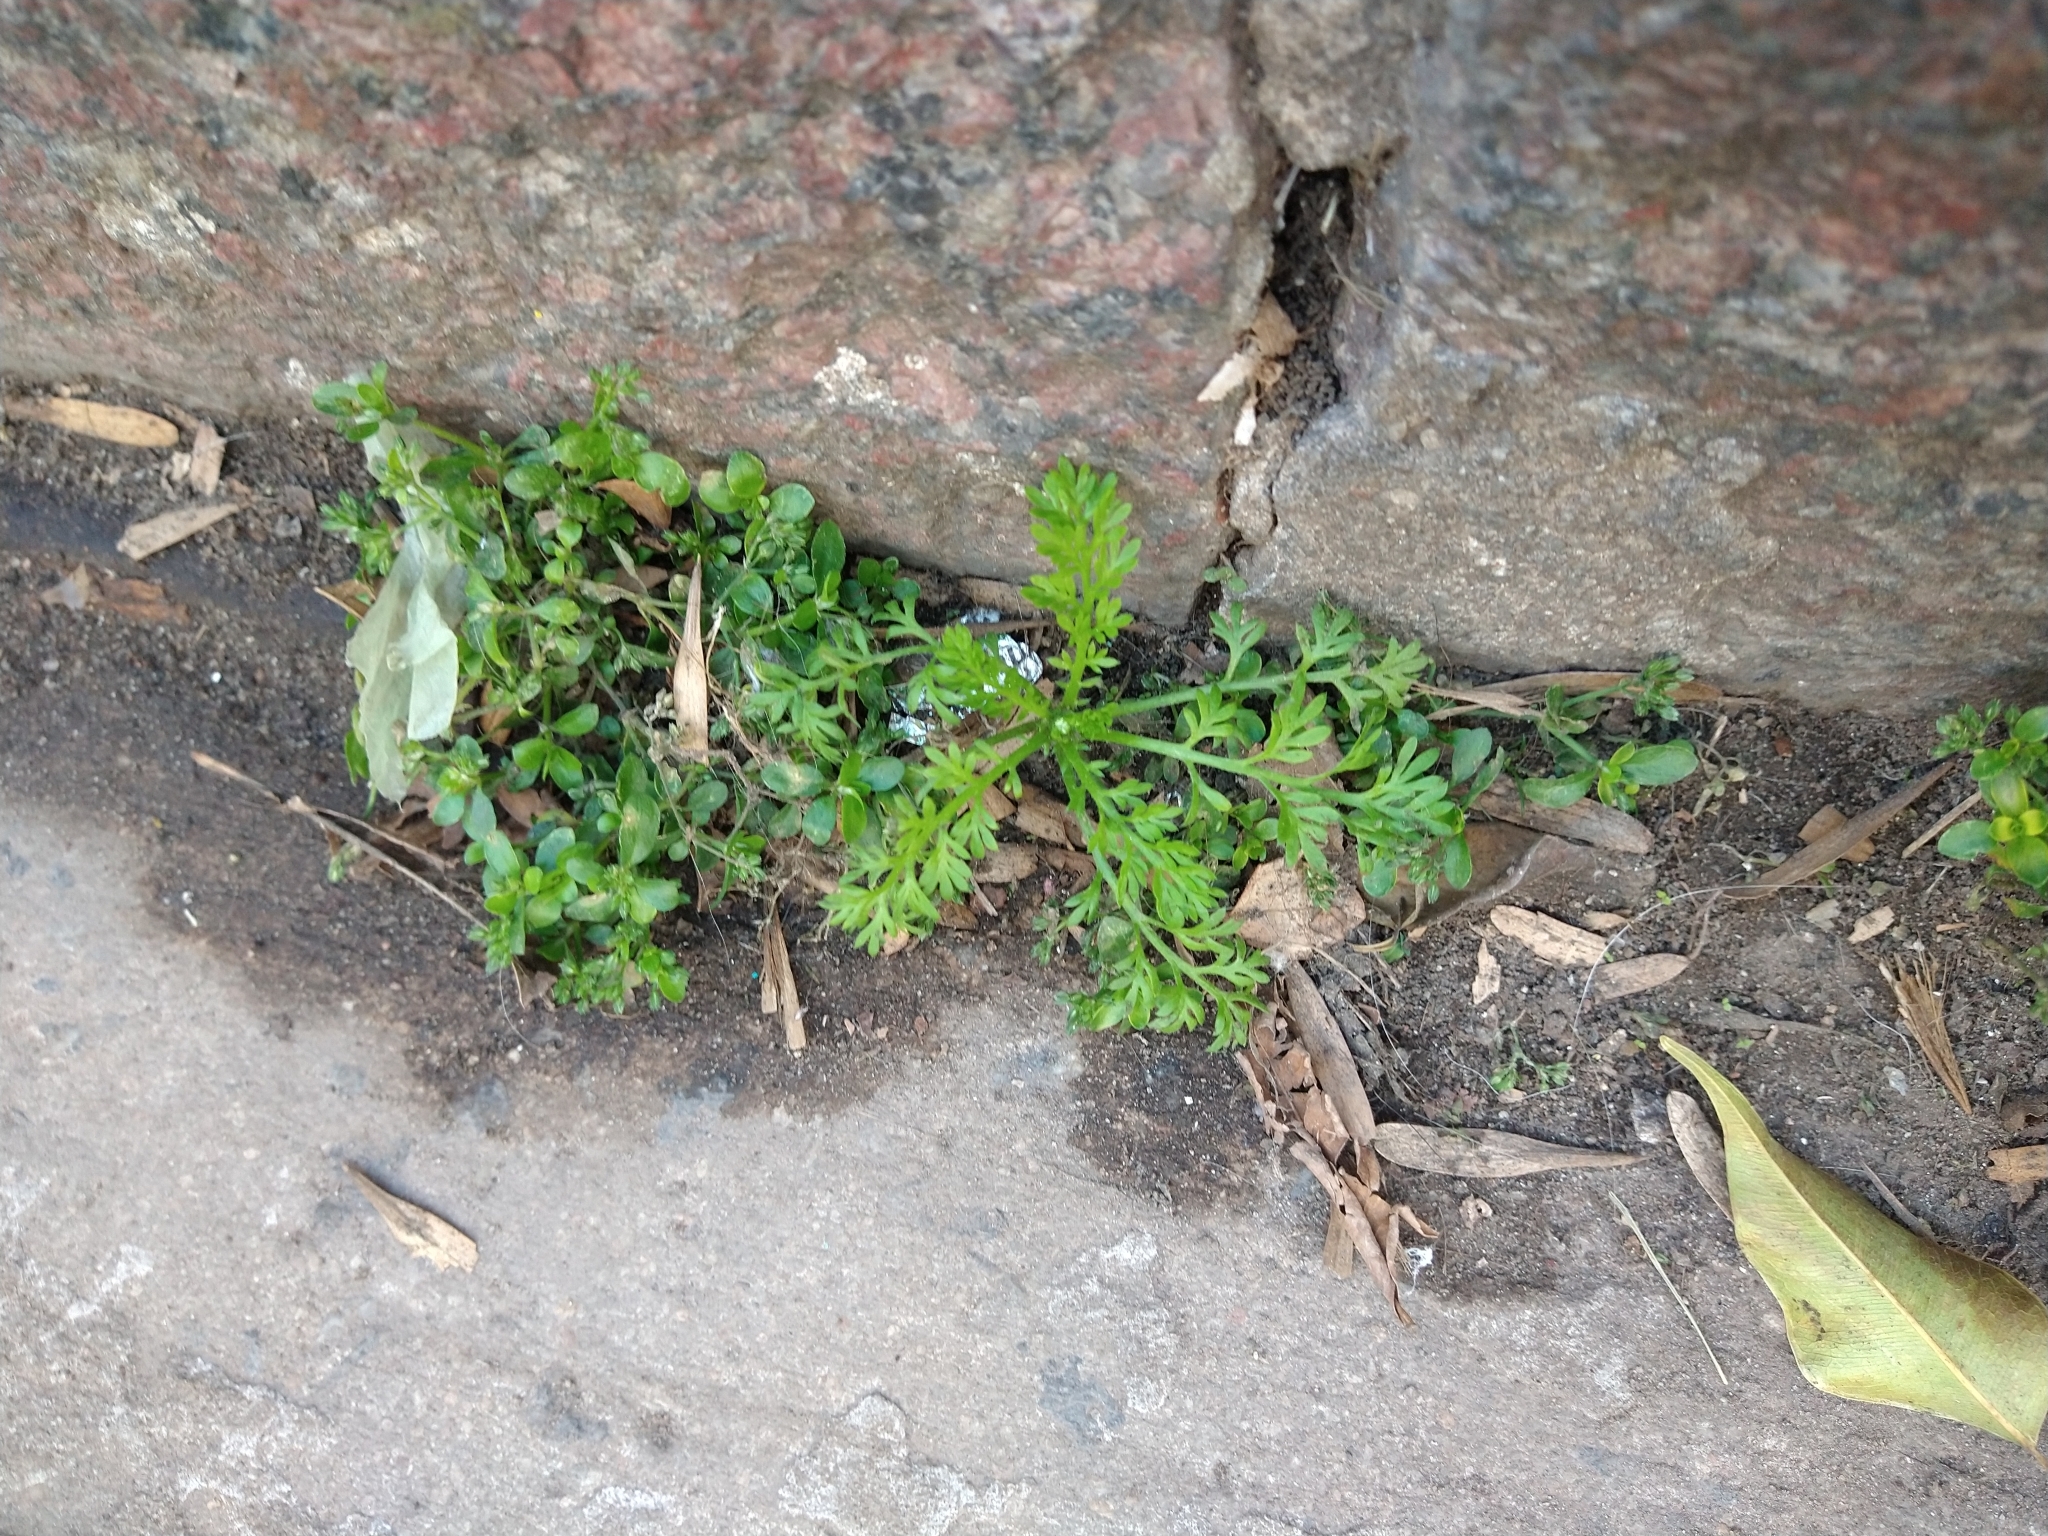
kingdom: Plantae
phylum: Tracheophyta
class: Magnoliopsida
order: Brassicales
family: Brassicaceae
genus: Lepidium
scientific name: Lepidium didymum
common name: Lesser swinecress
